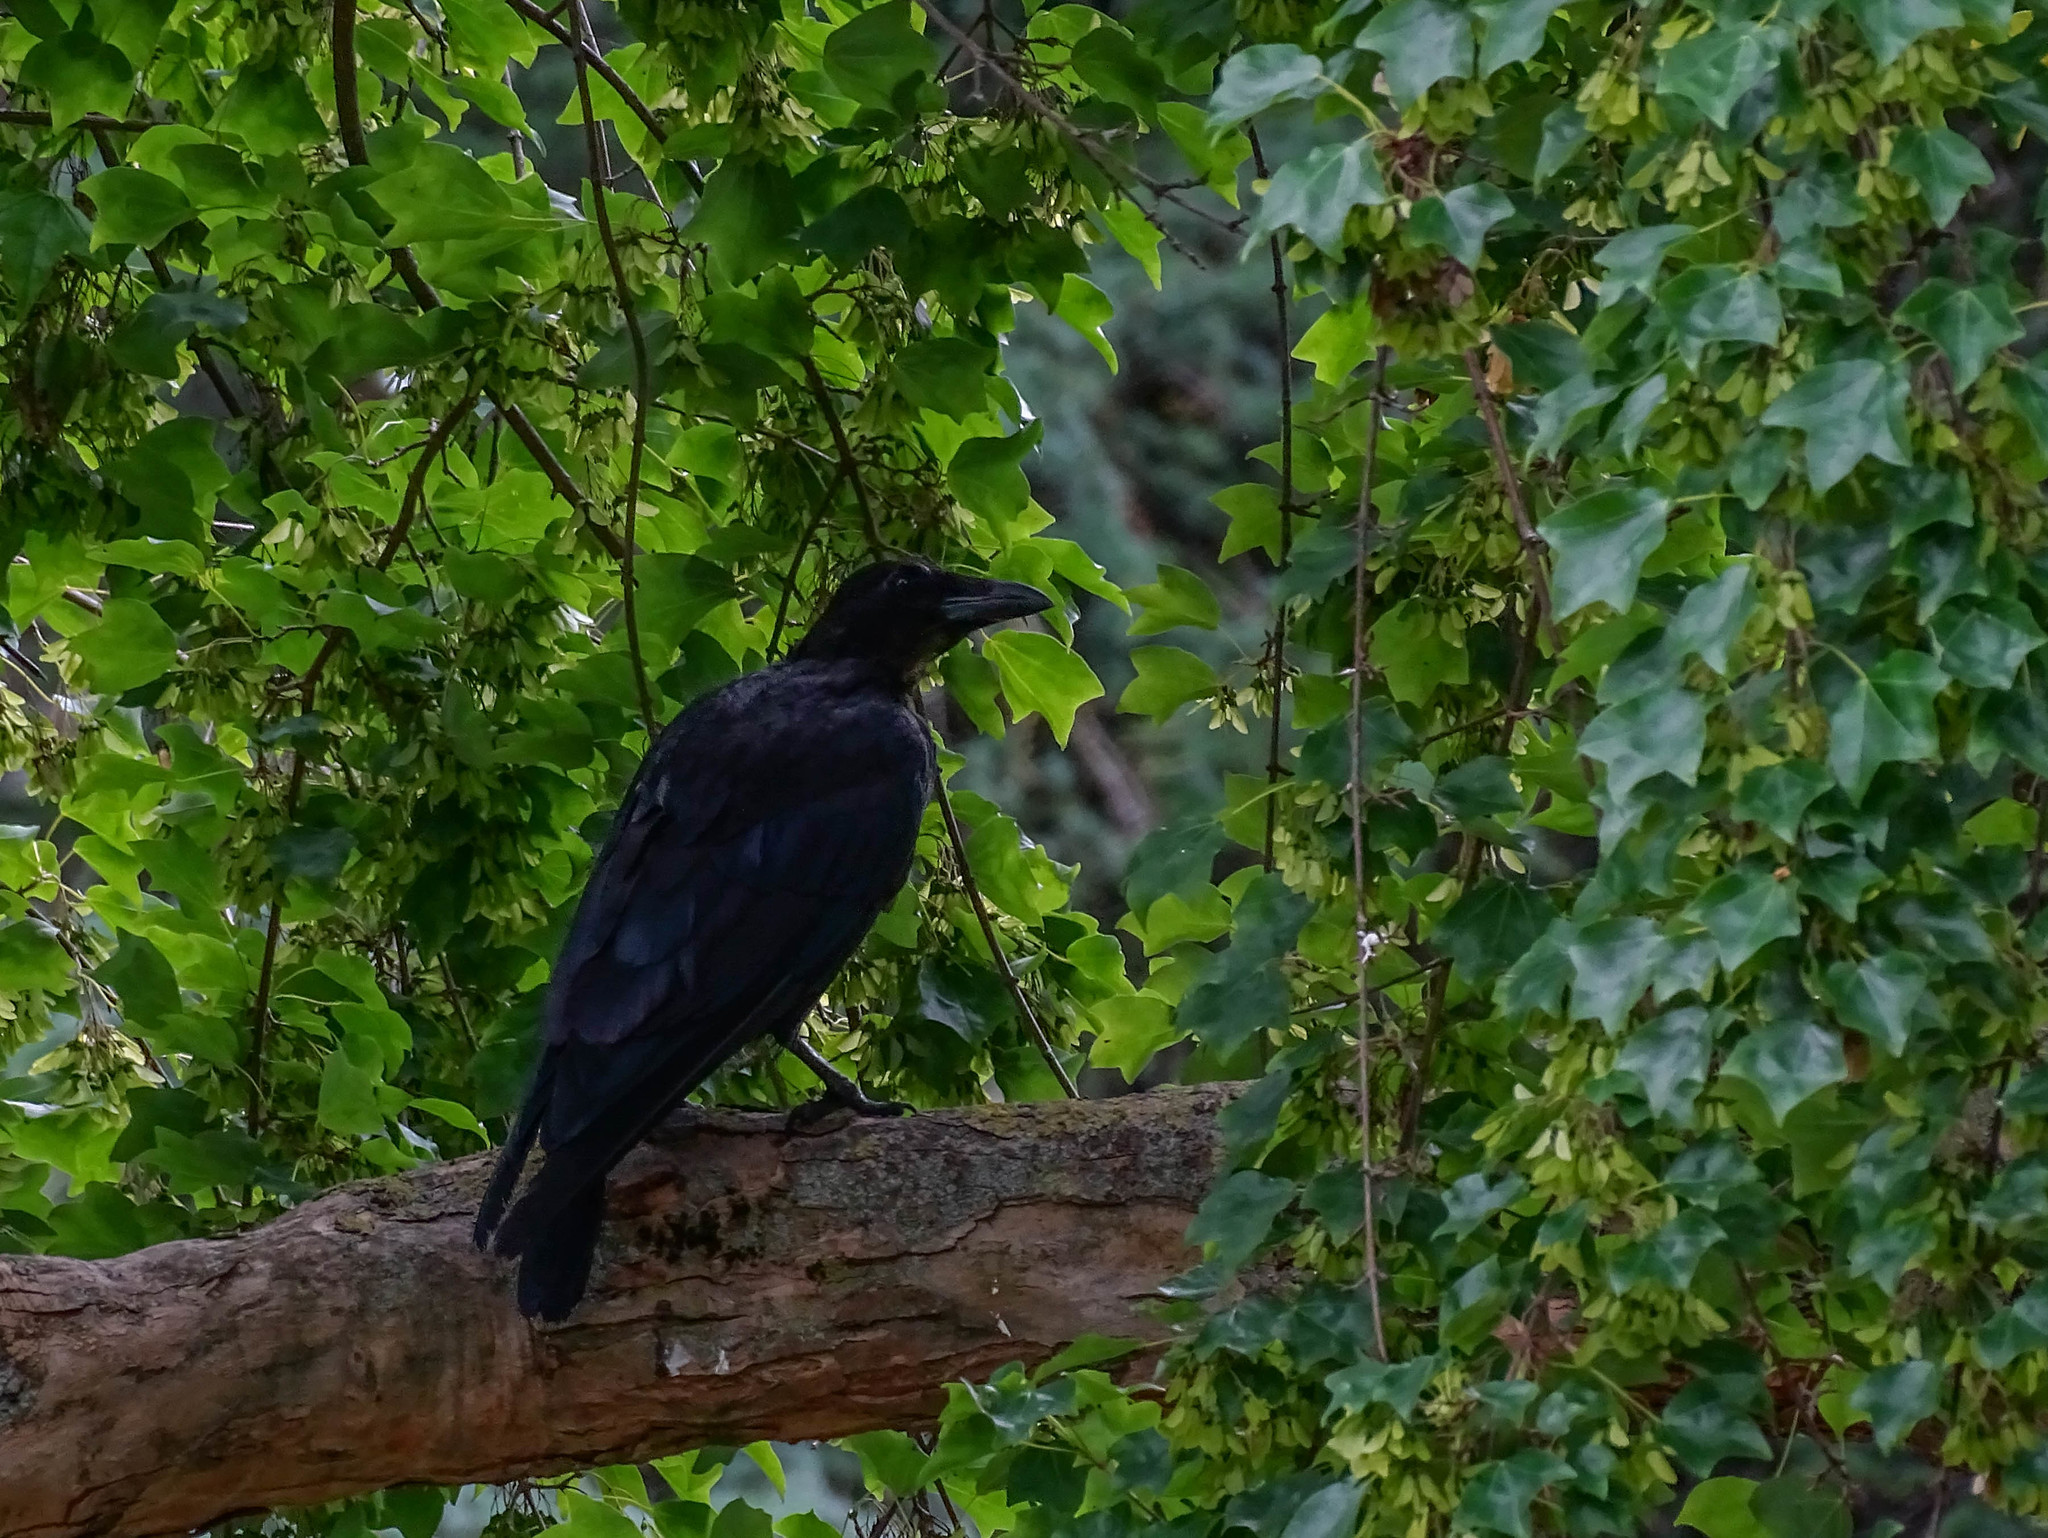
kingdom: Animalia
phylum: Chordata
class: Aves
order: Passeriformes
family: Corvidae
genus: Corvus
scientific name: Corvus corone
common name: Carrion crow
